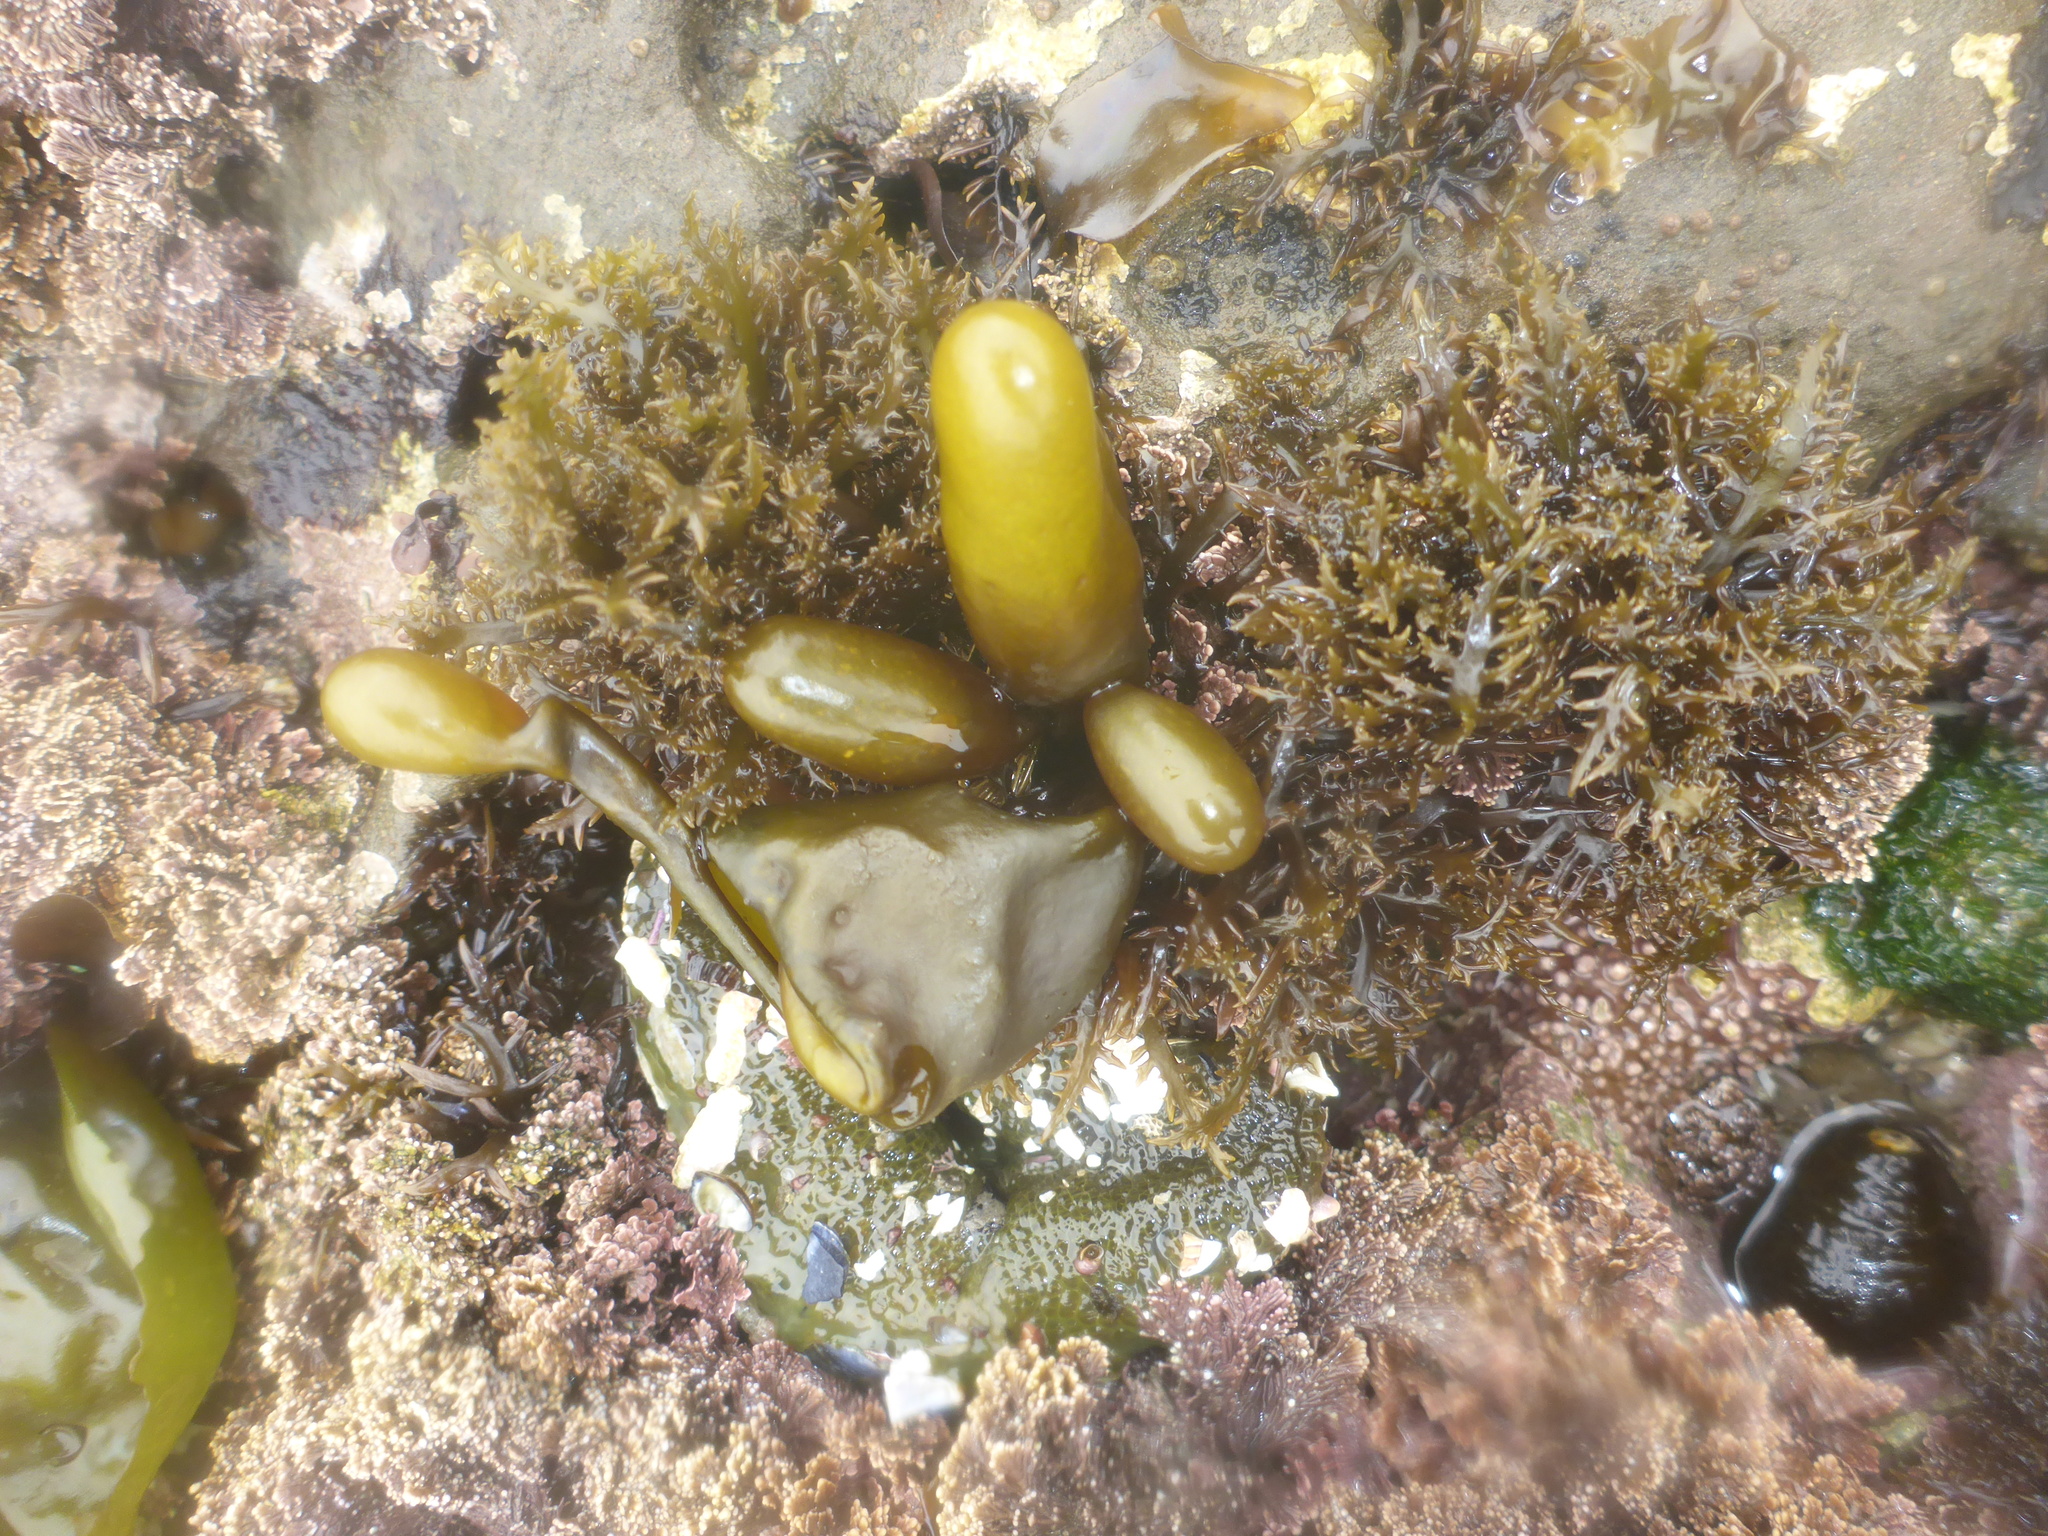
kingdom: Plantae
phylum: Rhodophyta
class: Florideophyceae
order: Palmariales
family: Palmariaceae
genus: Halosaccion
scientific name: Halosaccion glandiforme
